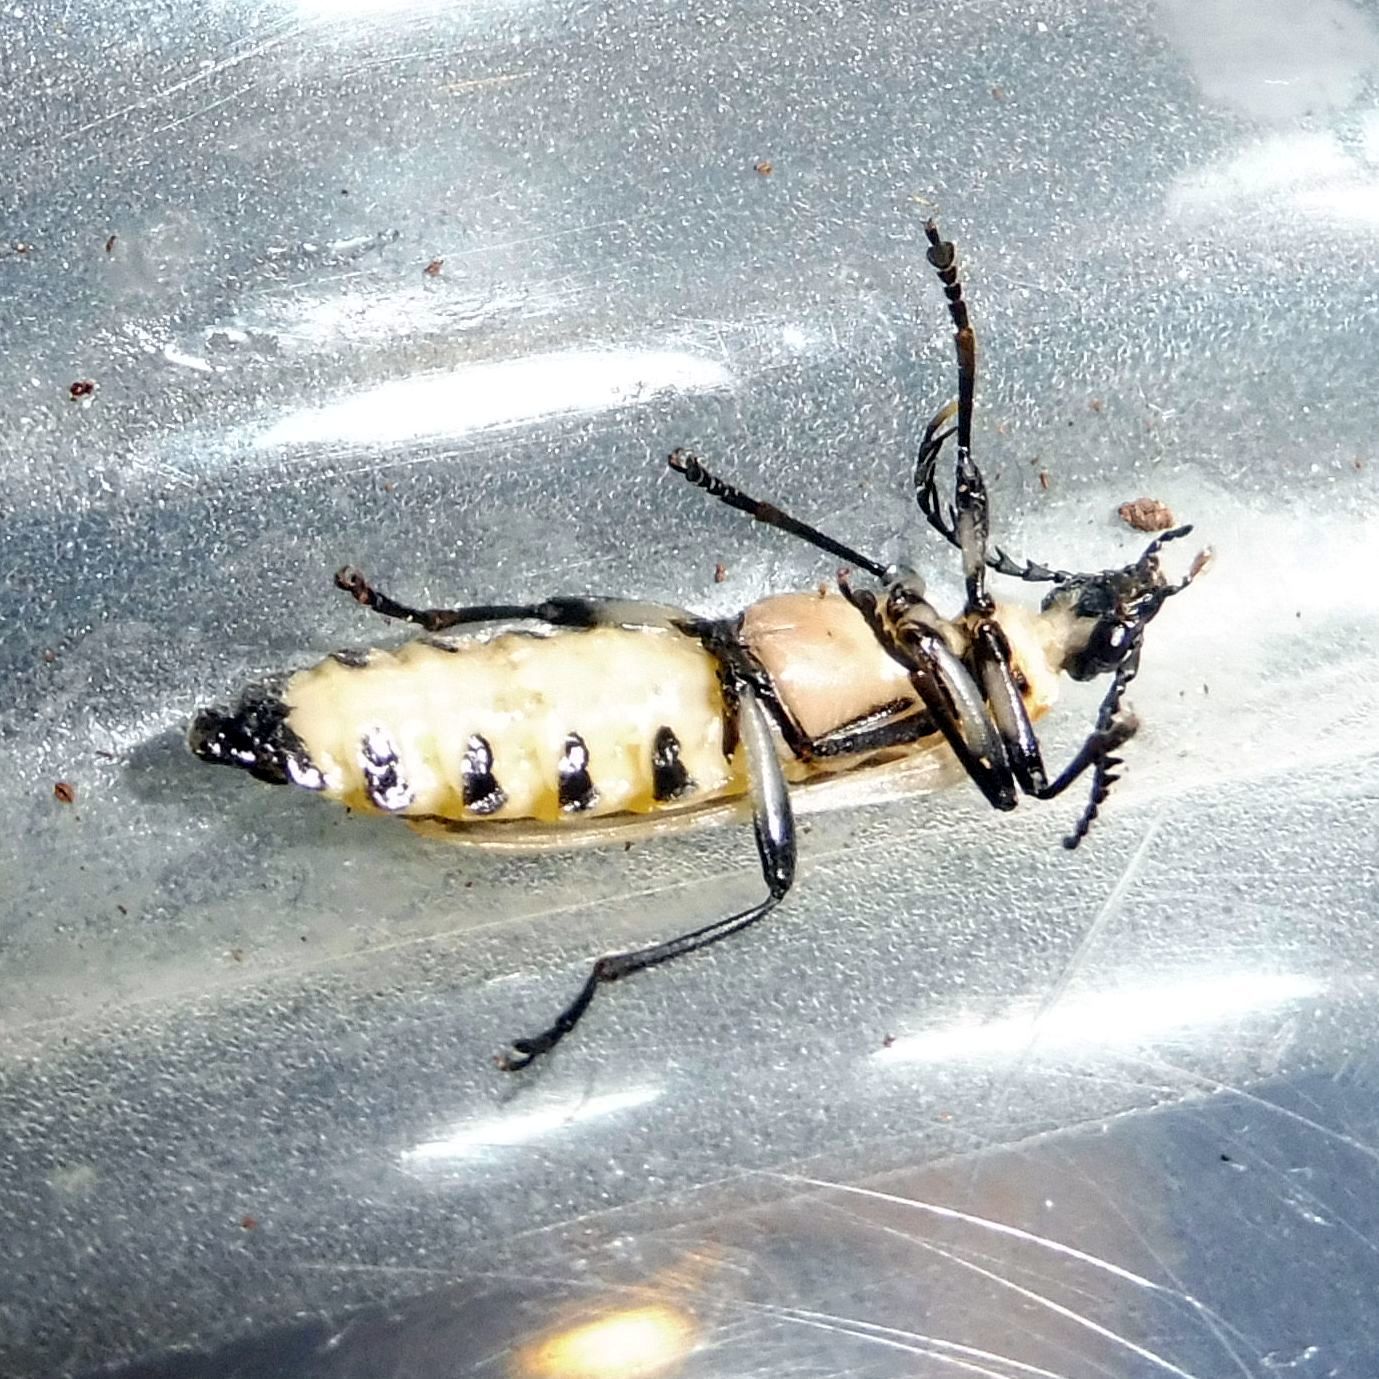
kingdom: Animalia
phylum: Arthropoda
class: Insecta
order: Coleoptera
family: Pyrochroidae
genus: Pyrochroa
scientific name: Pyrochroa coccinea
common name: Black-headed cardinal beetle
